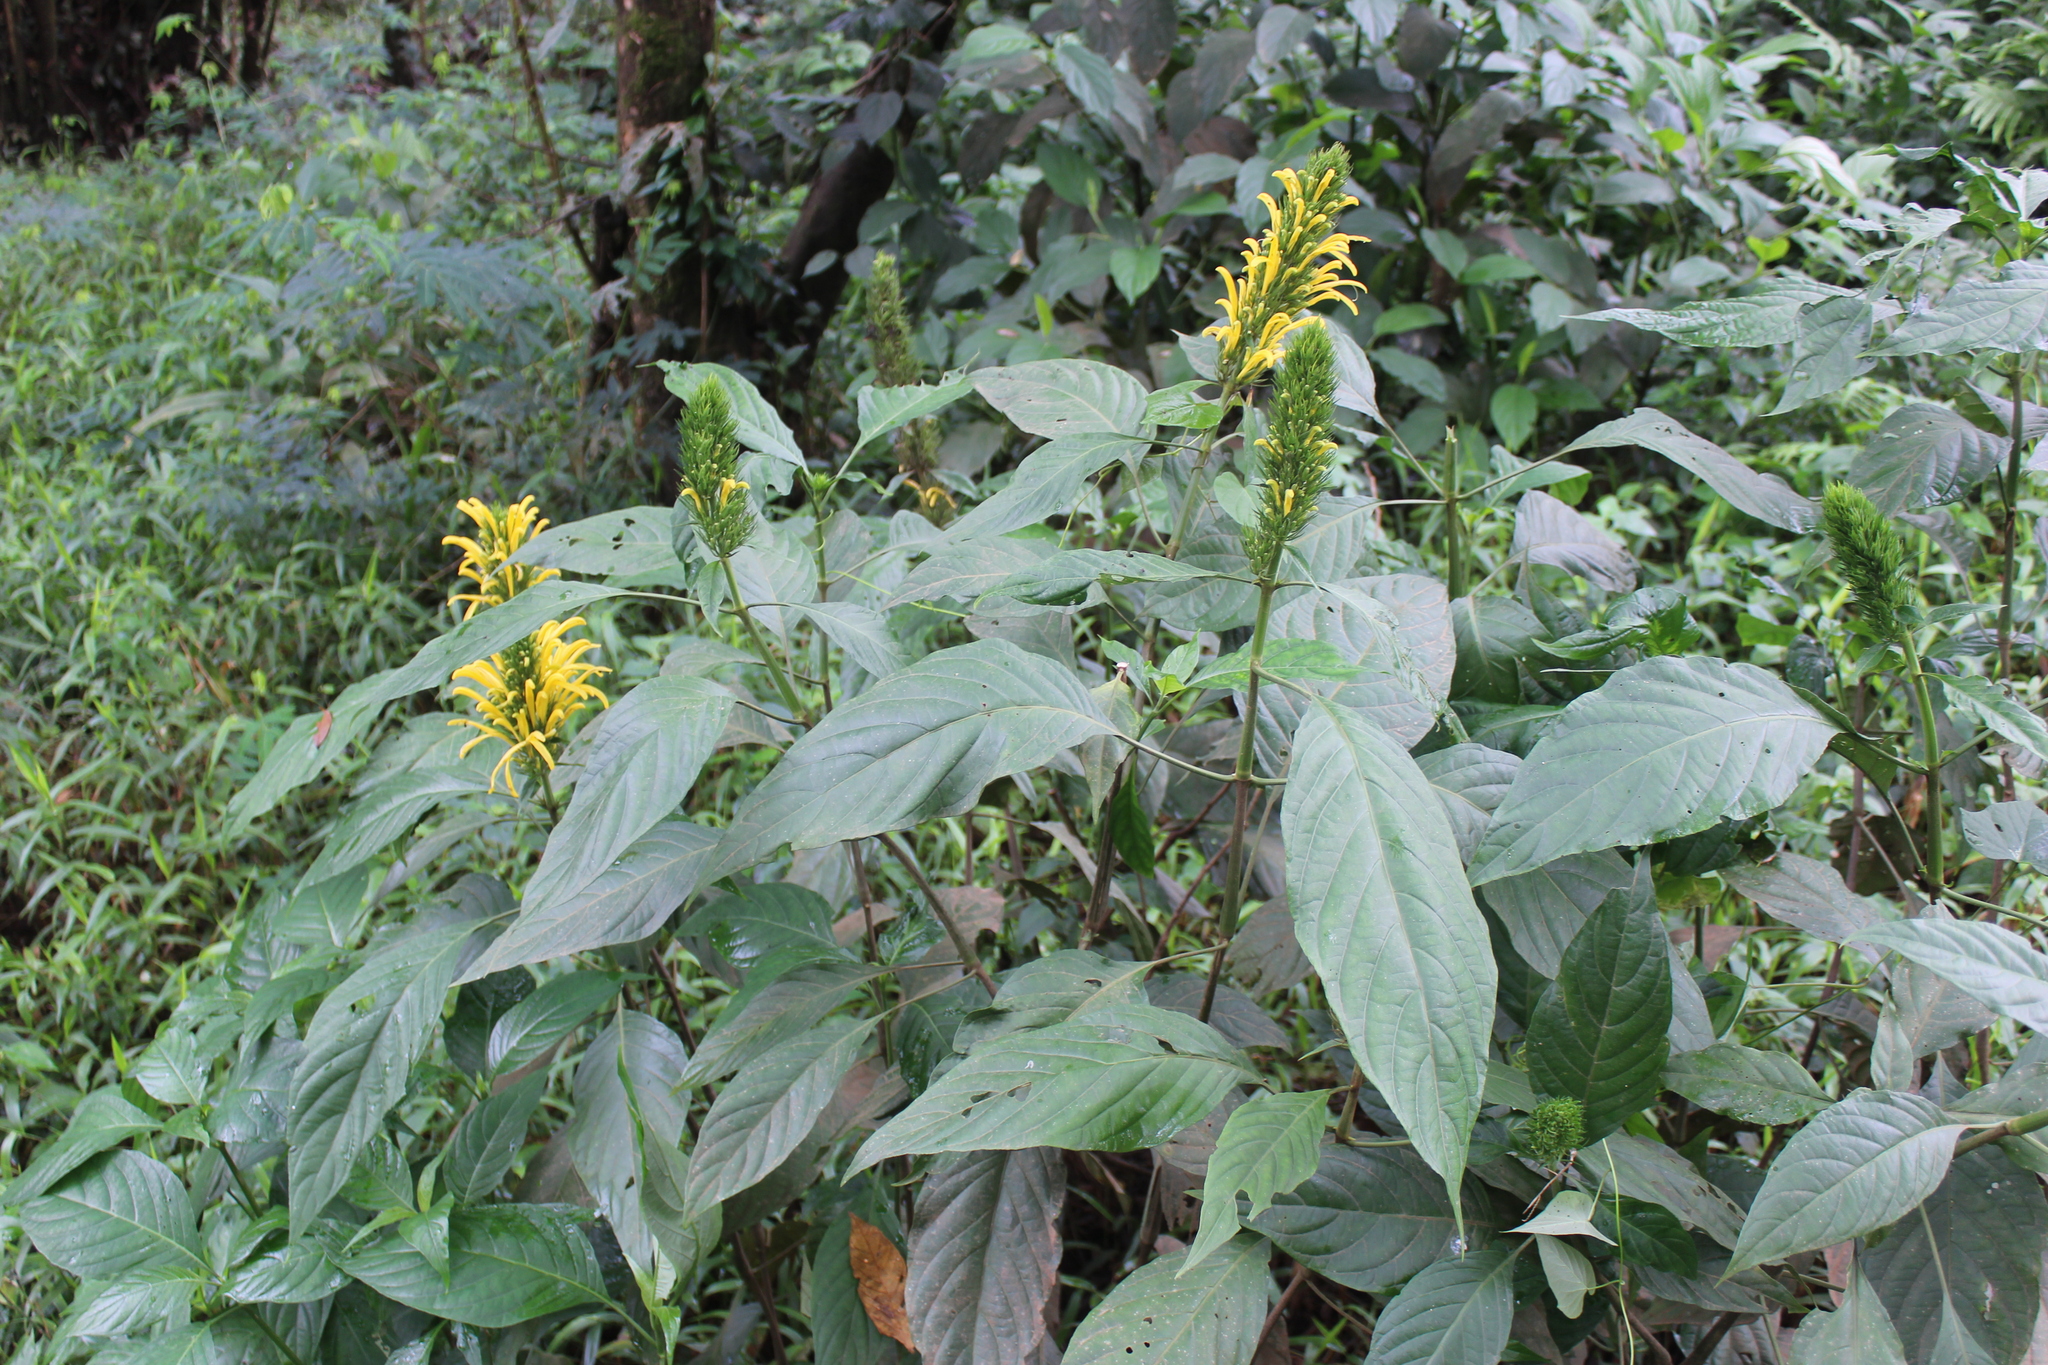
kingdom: Plantae
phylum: Tracheophyta
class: Magnoliopsida
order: Lamiales
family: Acanthaceae
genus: Justicia
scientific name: Justicia aurea
